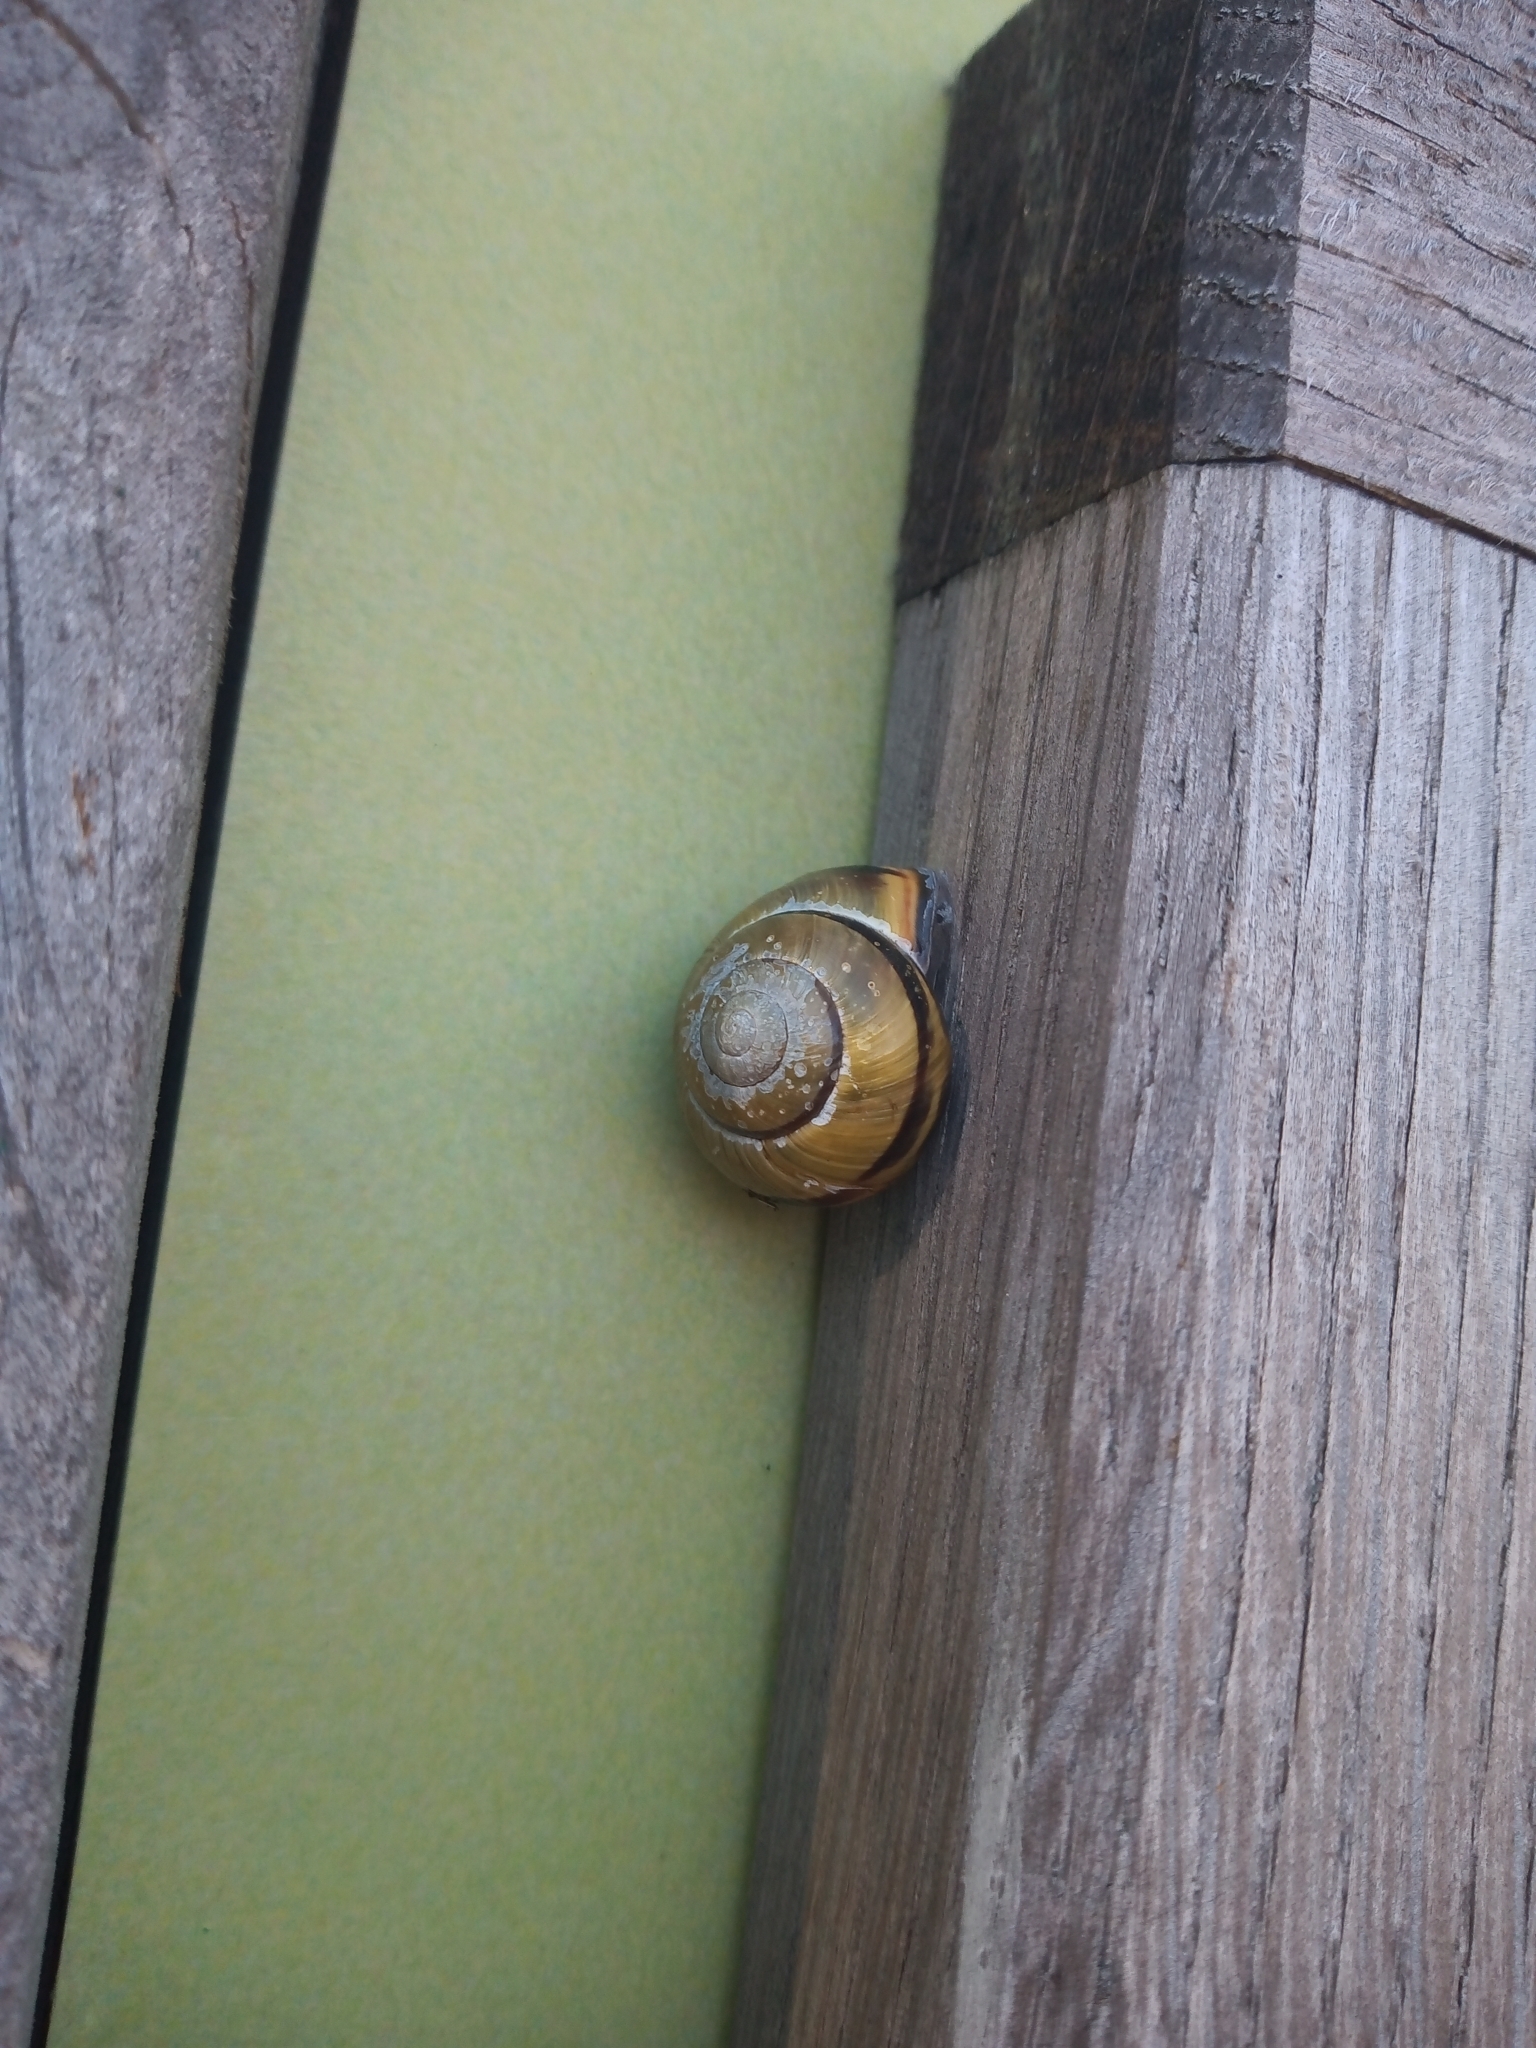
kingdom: Animalia
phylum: Mollusca
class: Gastropoda
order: Stylommatophora
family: Helicidae
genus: Cepaea
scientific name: Cepaea nemoralis
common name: Grovesnail
